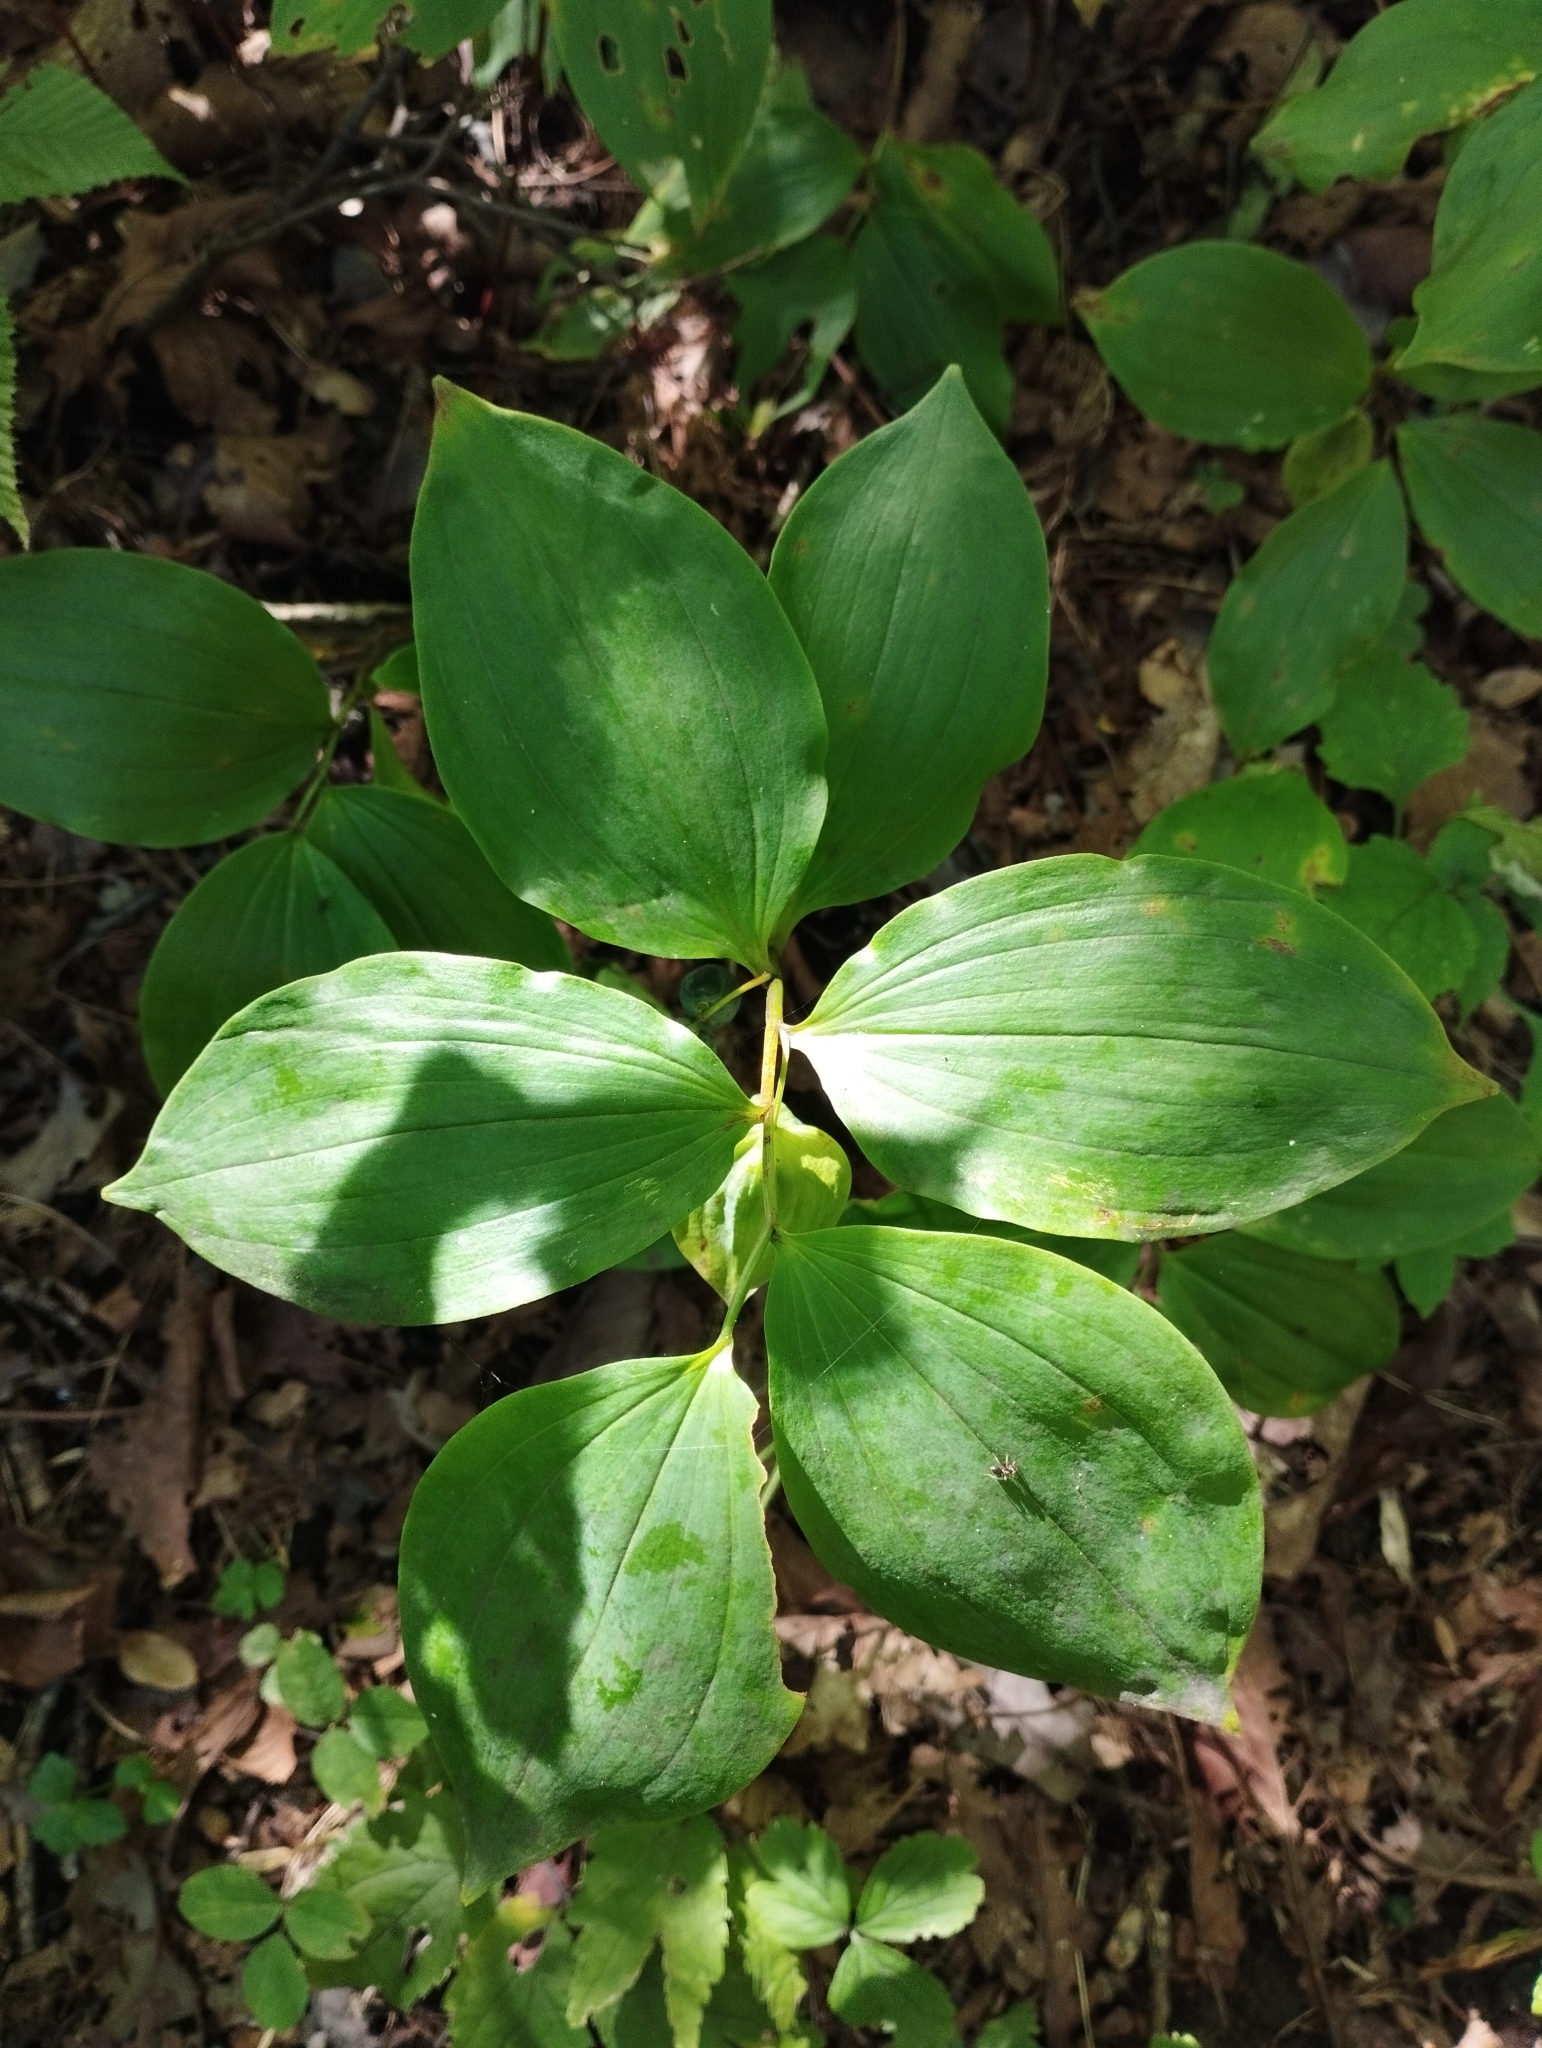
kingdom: Plantae
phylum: Tracheophyta
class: Liliopsida
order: Asparagales
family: Asparagaceae
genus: Polygonatum
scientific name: Polygonatum involucratum
